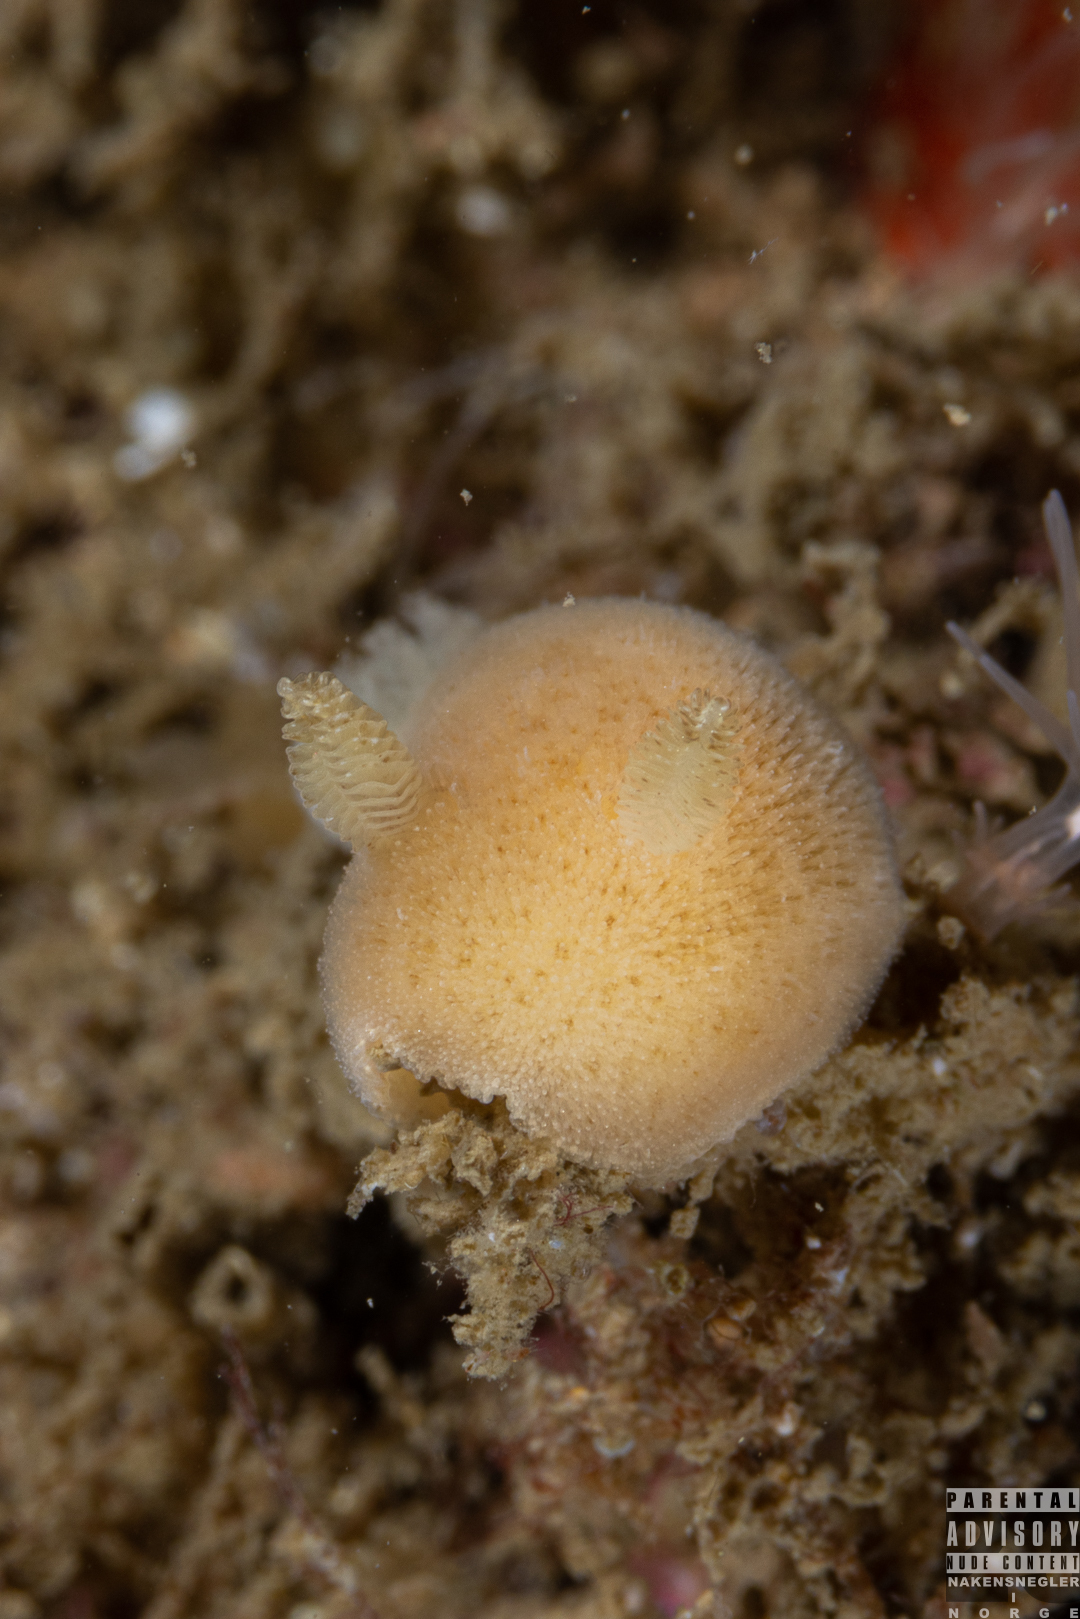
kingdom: Animalia
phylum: Mollusca
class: Gastropoda
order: Nudibranchia
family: Discodorididae
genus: Jorunna
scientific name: Jorunna tomentosa
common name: Grey sea slug
